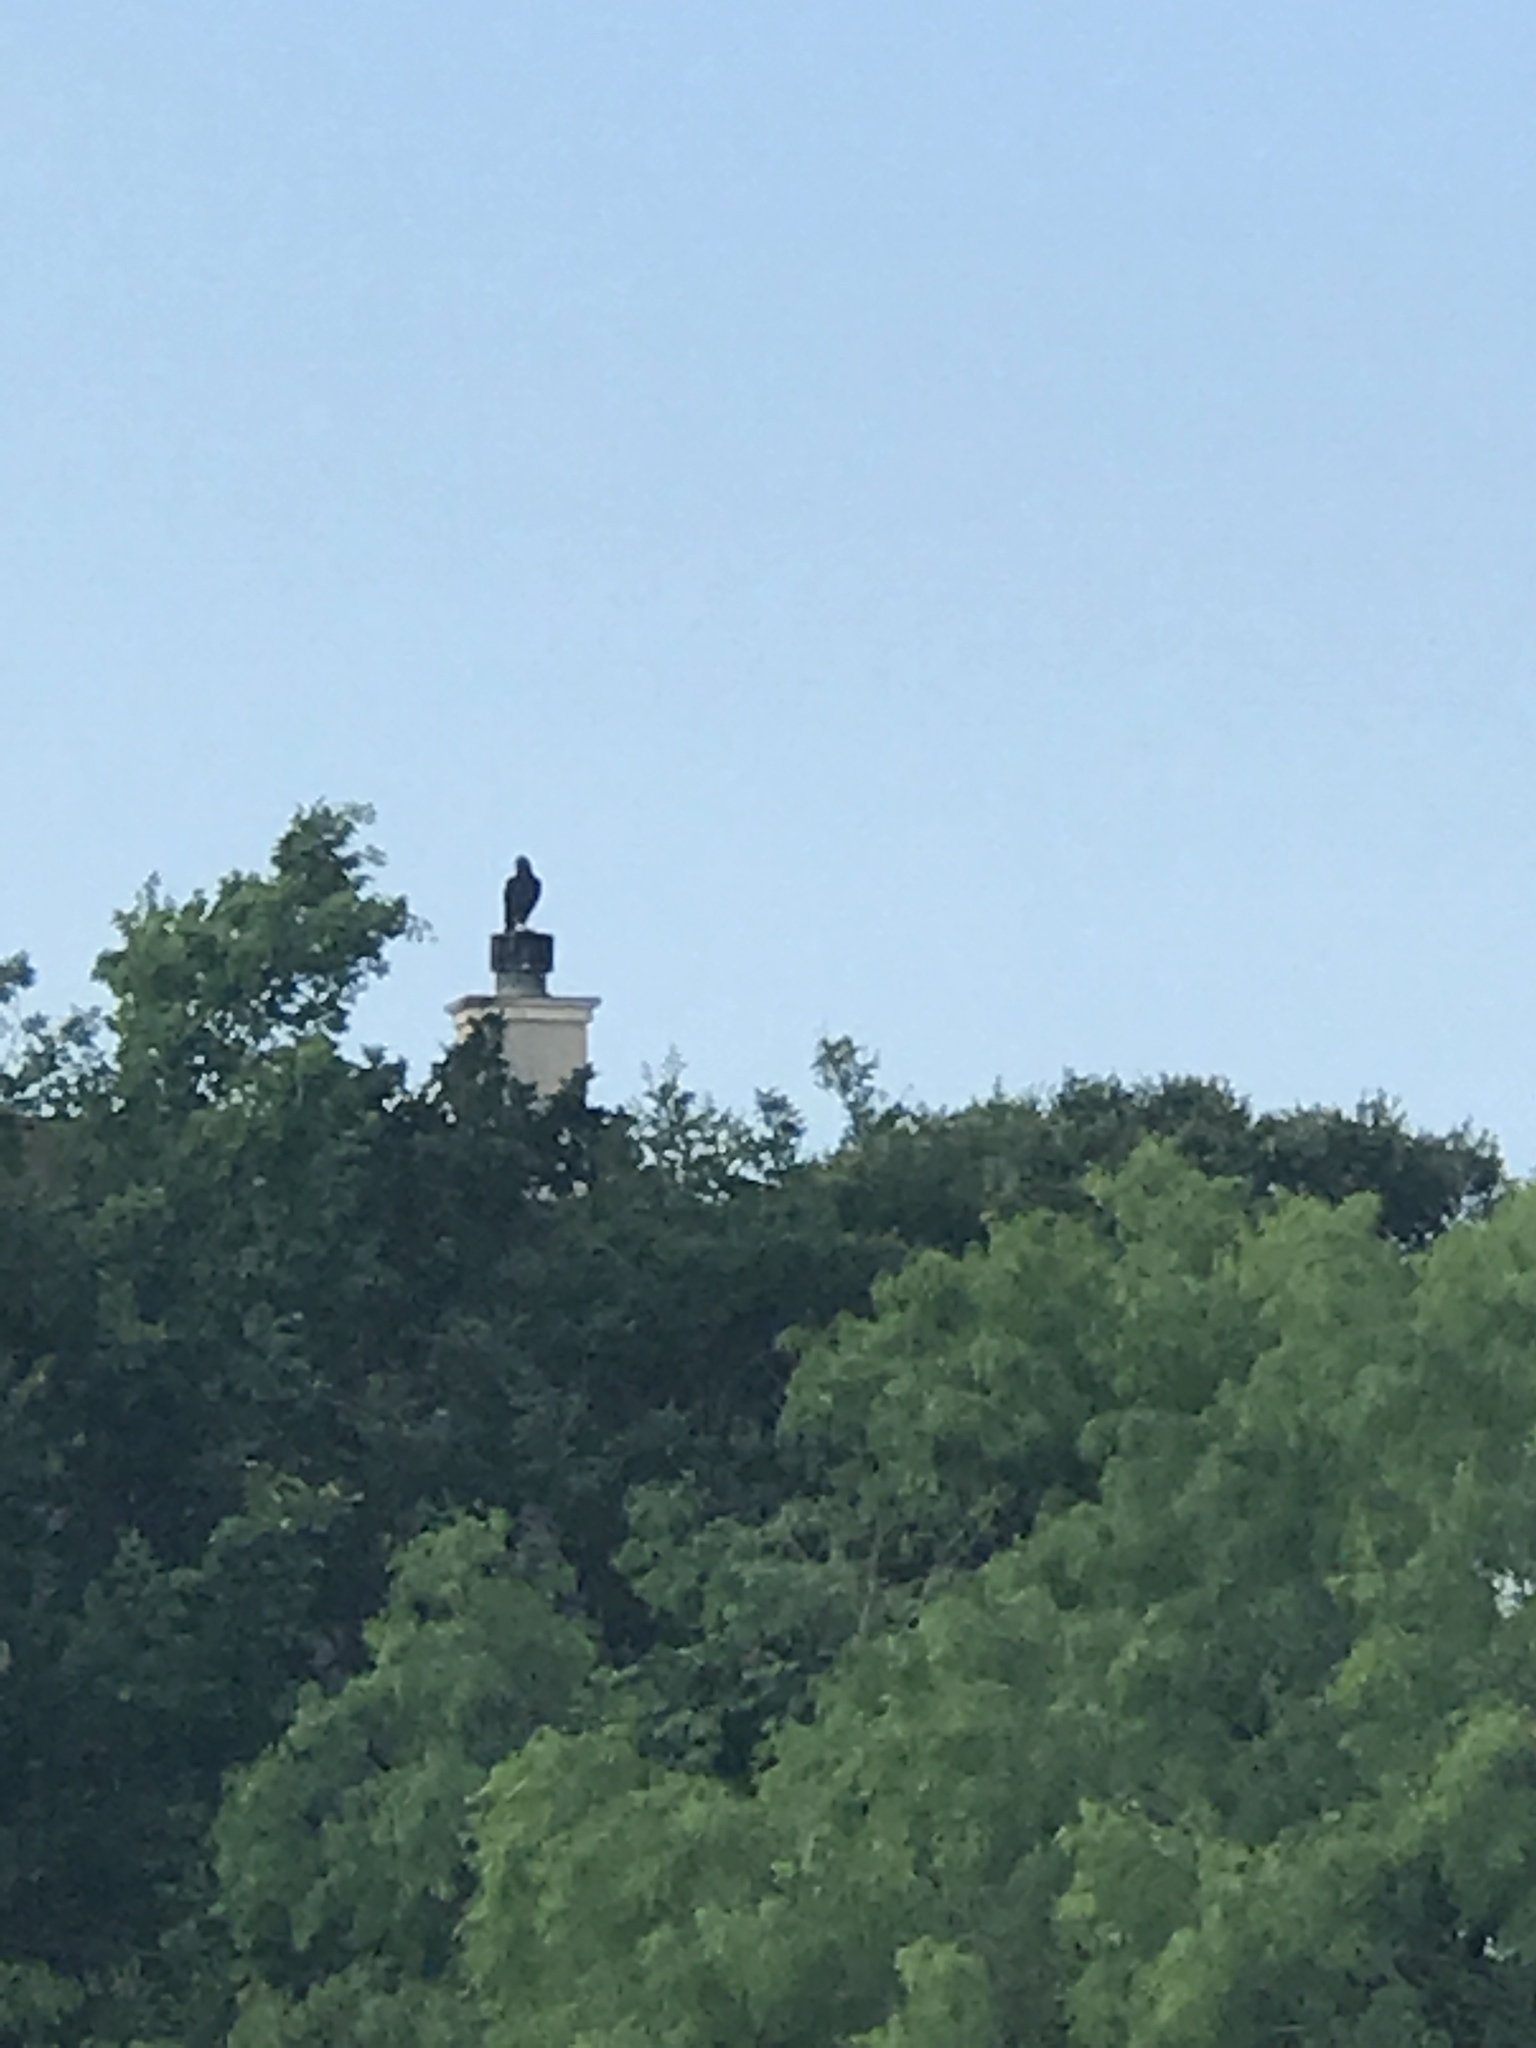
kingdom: Animalia
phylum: Chordata
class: Aves
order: Accipitriformes
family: Cathartidae
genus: Coragyps
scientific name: Coragyps atratus
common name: Black vulture
